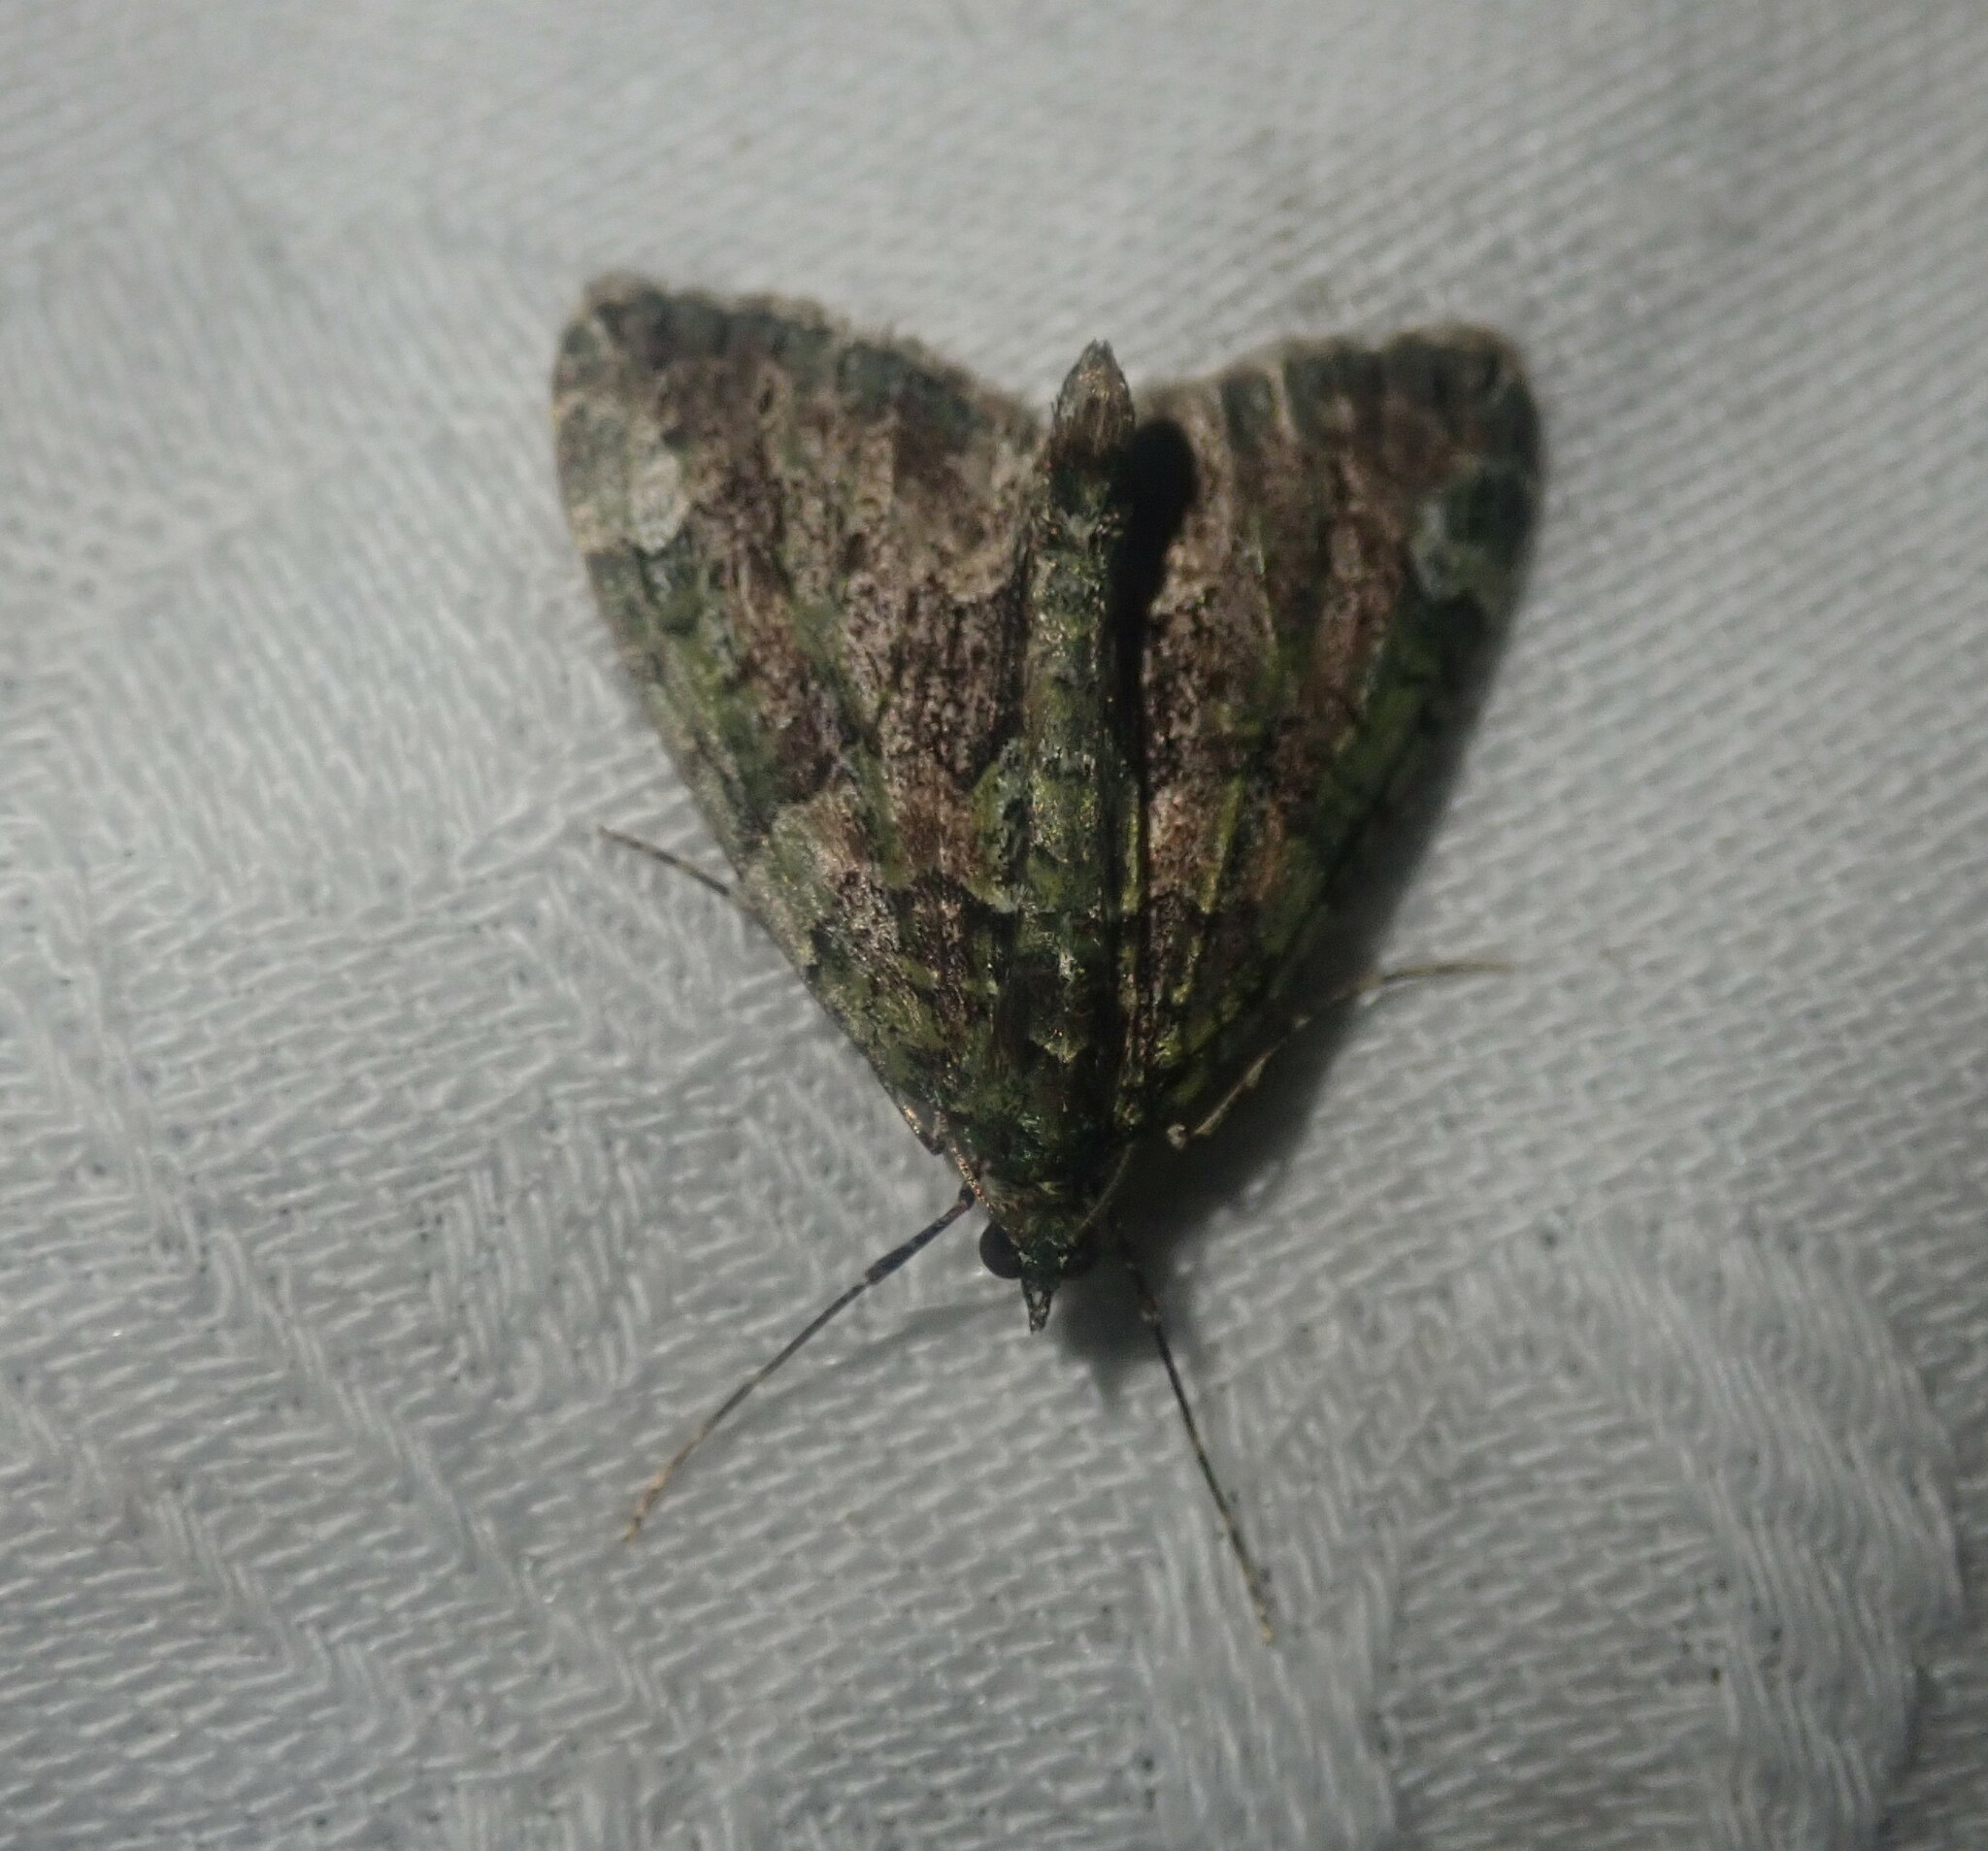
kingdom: Animalia
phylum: Arthropoda
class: Insecta
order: Lepidoptera
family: Geometridae
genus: Chloroclysta
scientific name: Chloroclysta siterata
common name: Red-green carpet
